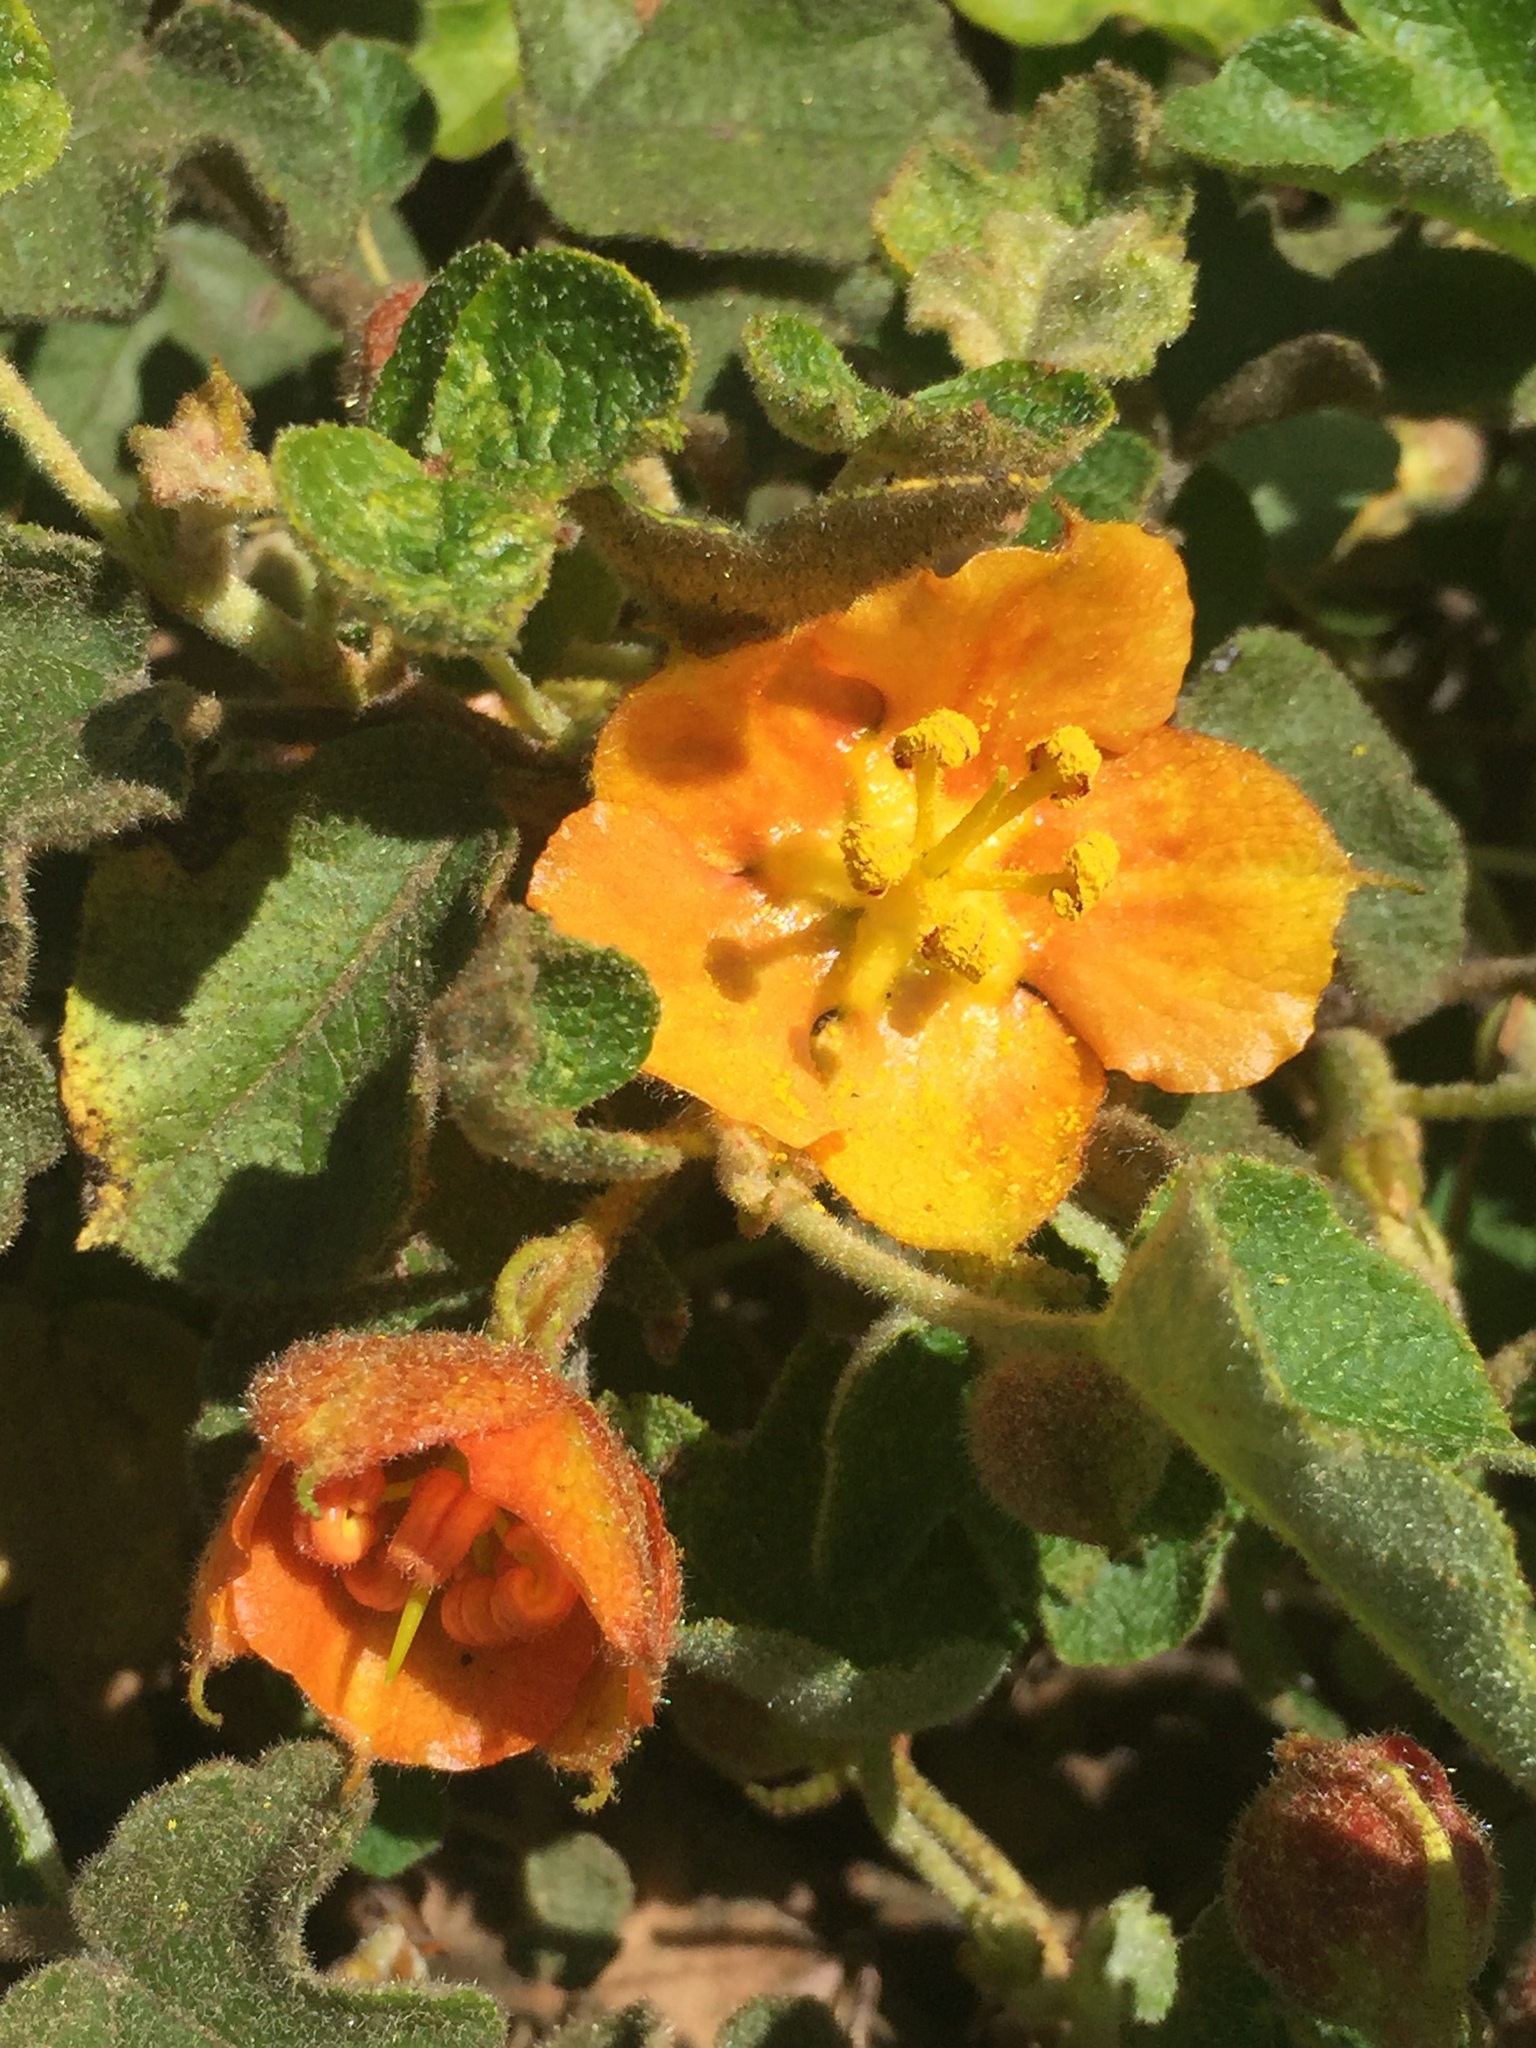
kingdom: Plantae
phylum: Tracheophyta
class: Magnoliopsida
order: Malvales
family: Malvaceae
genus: Fremontodendron
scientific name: Fremontodendron decumbens
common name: Pine hill flannelbush
